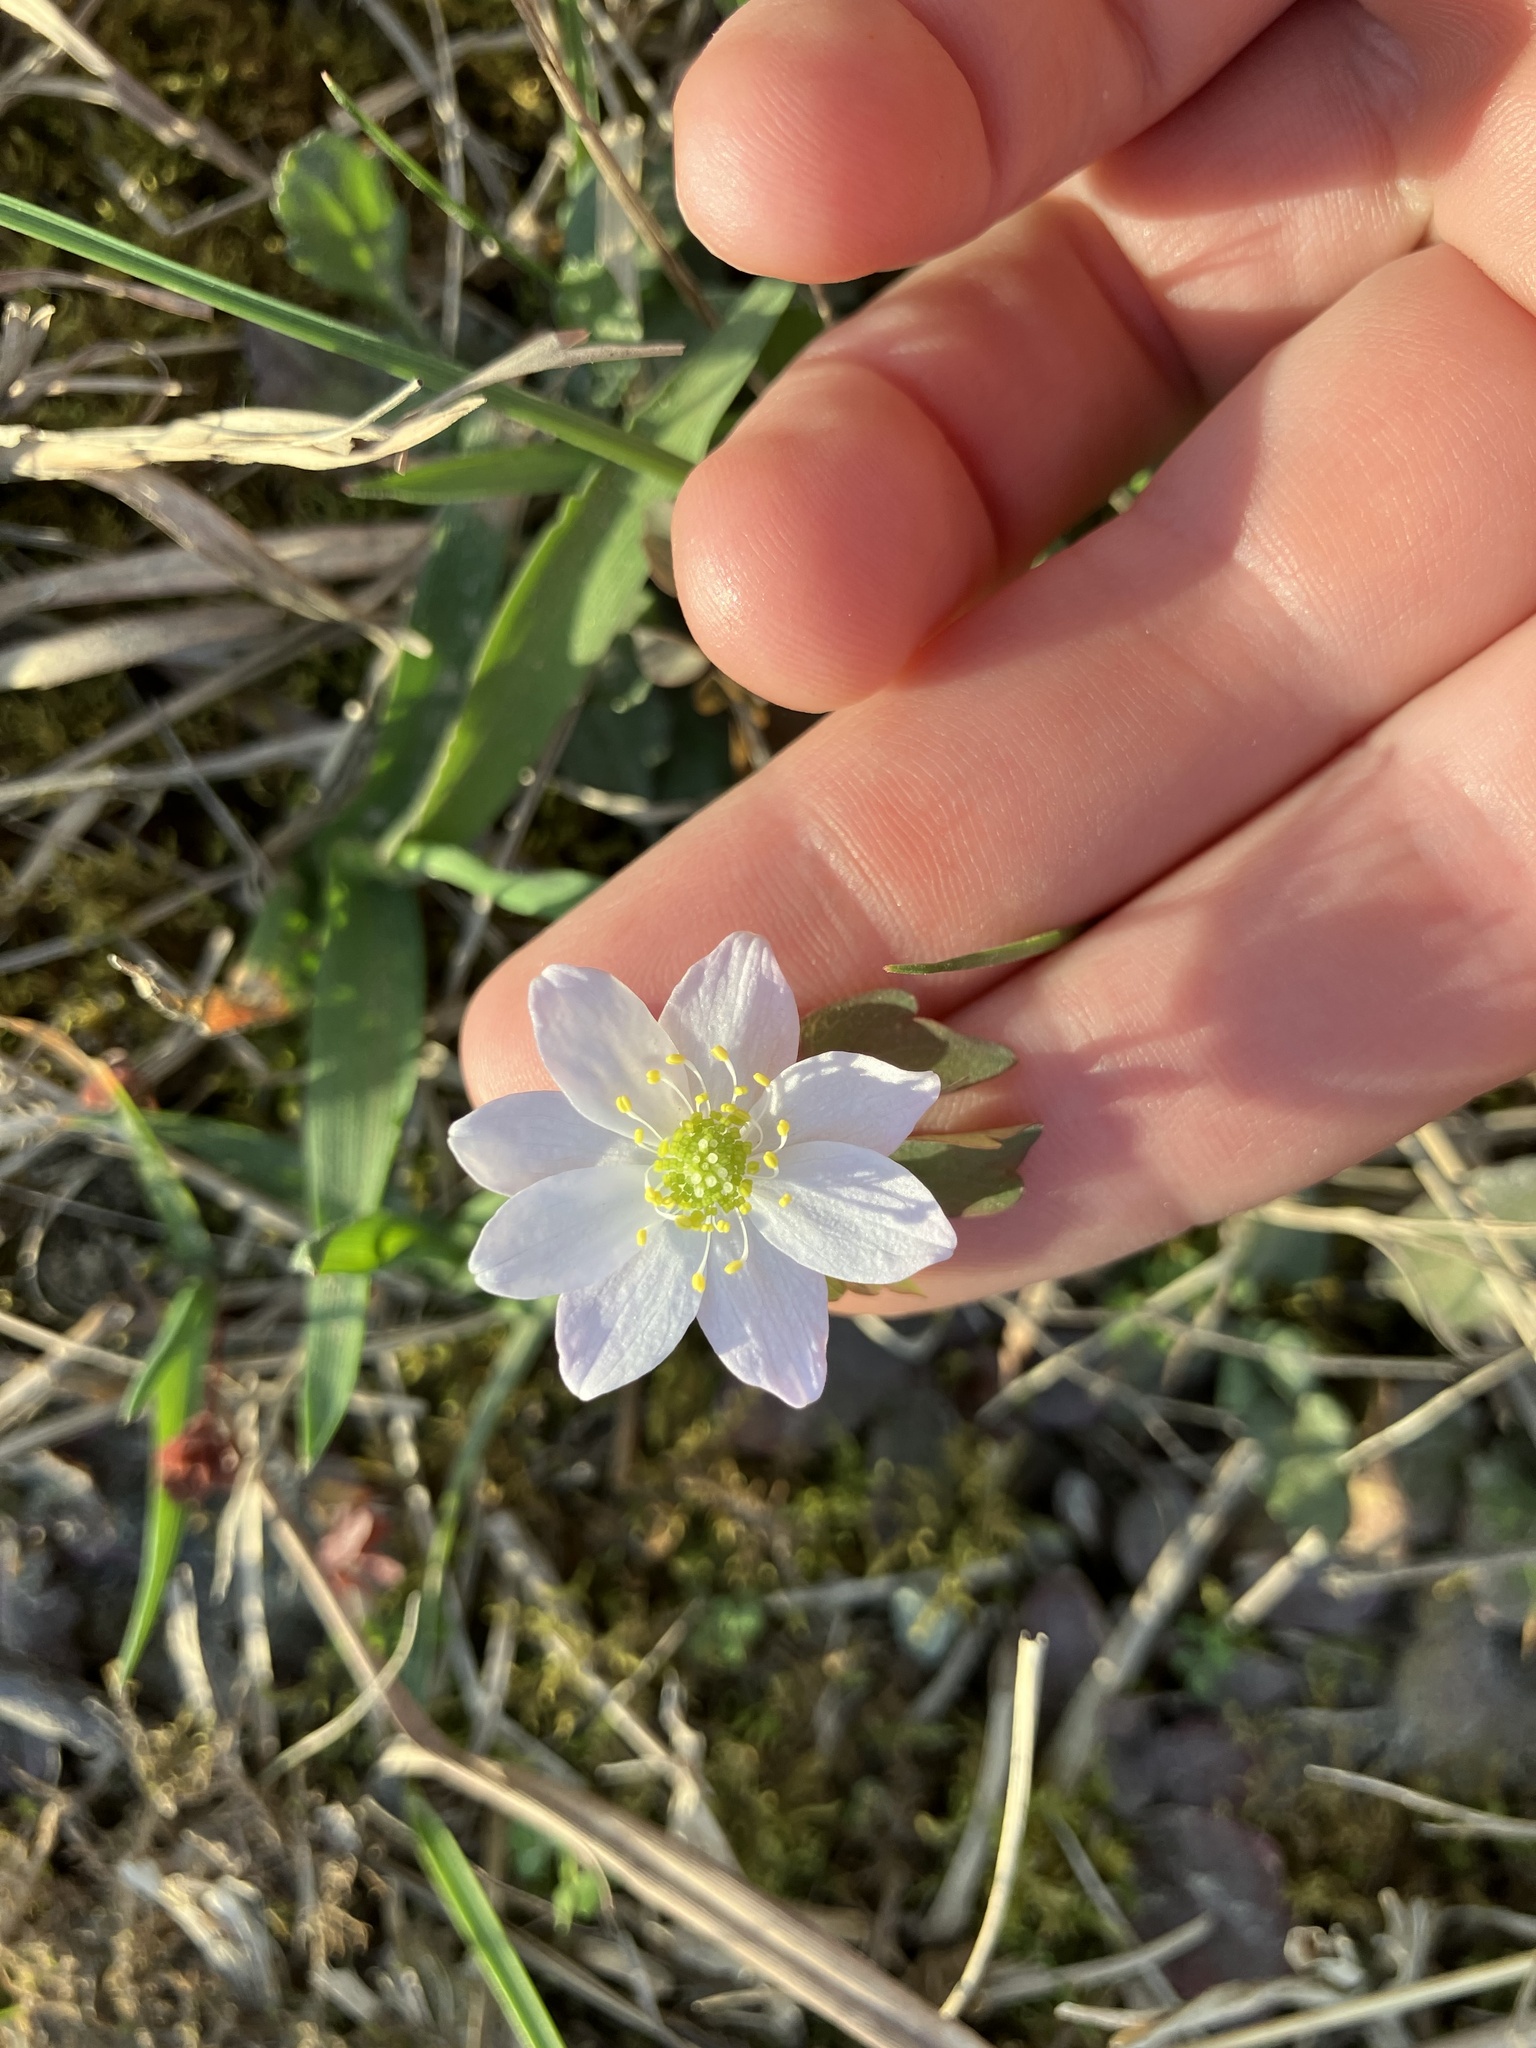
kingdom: Plantae
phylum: Tracheophyta
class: Magnoliopsida
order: Ranunculales
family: Ranunculaceae
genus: Thalictrum
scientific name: Thalictrum thalictroides
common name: Rue-anemone
